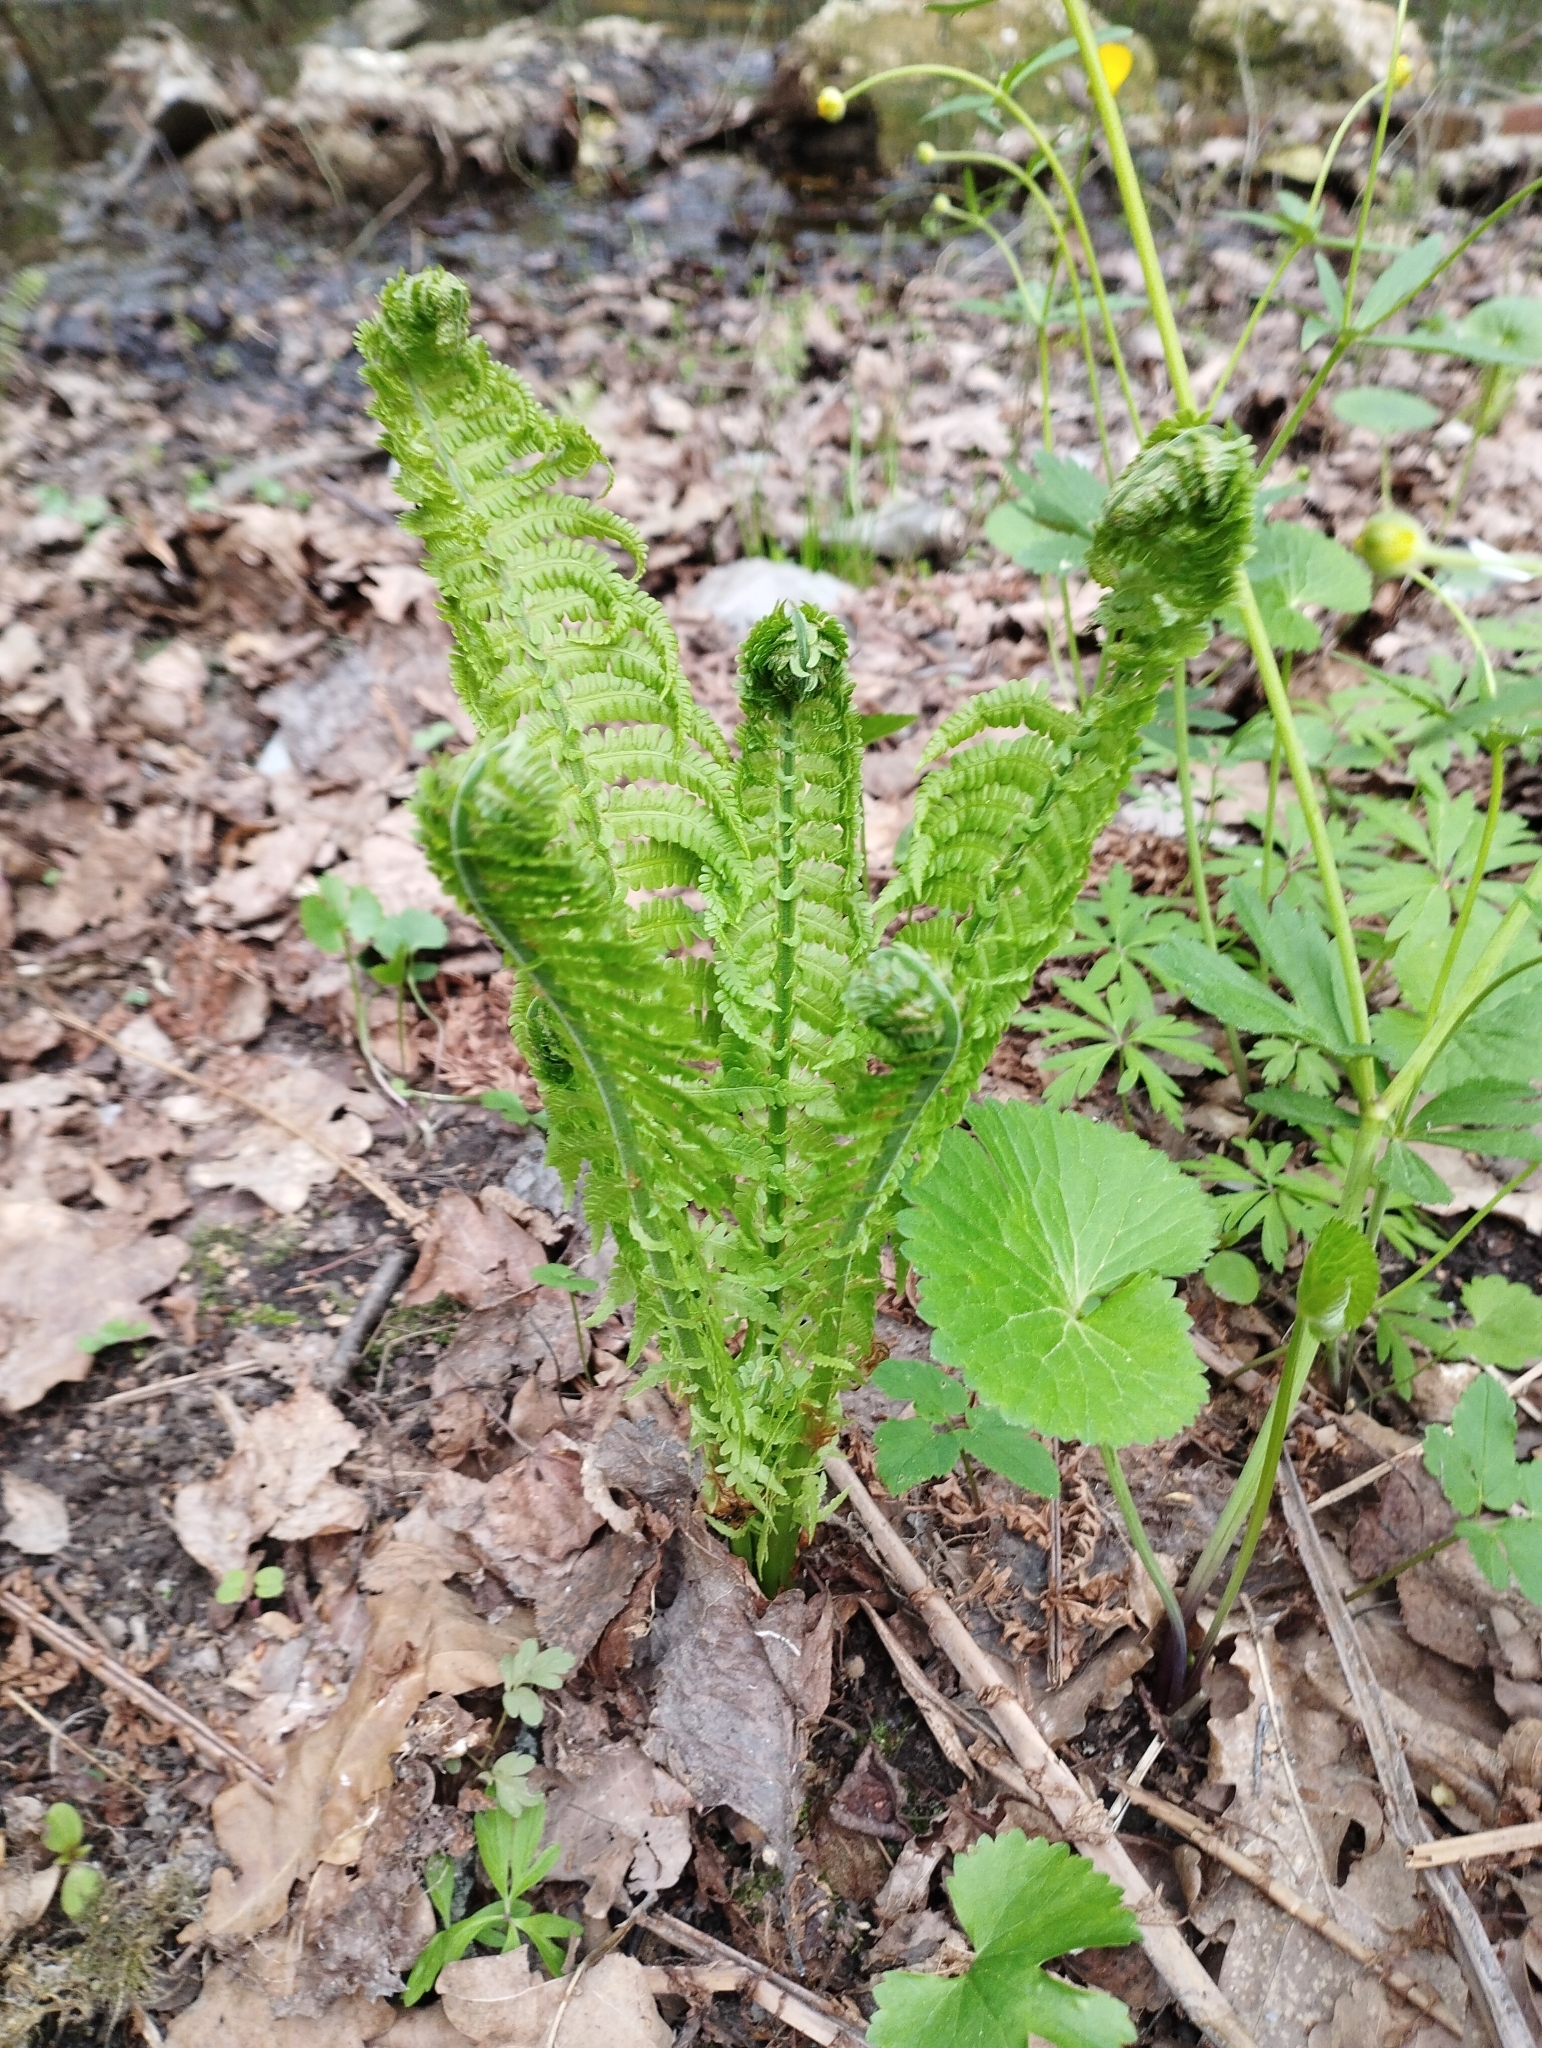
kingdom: Plantae
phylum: Tracheophyta
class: Polypodiopsida
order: Polypodiales
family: Onocleaceae
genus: Matteuccia
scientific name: Matteuccia struthiopteris
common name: Ostrich fern
